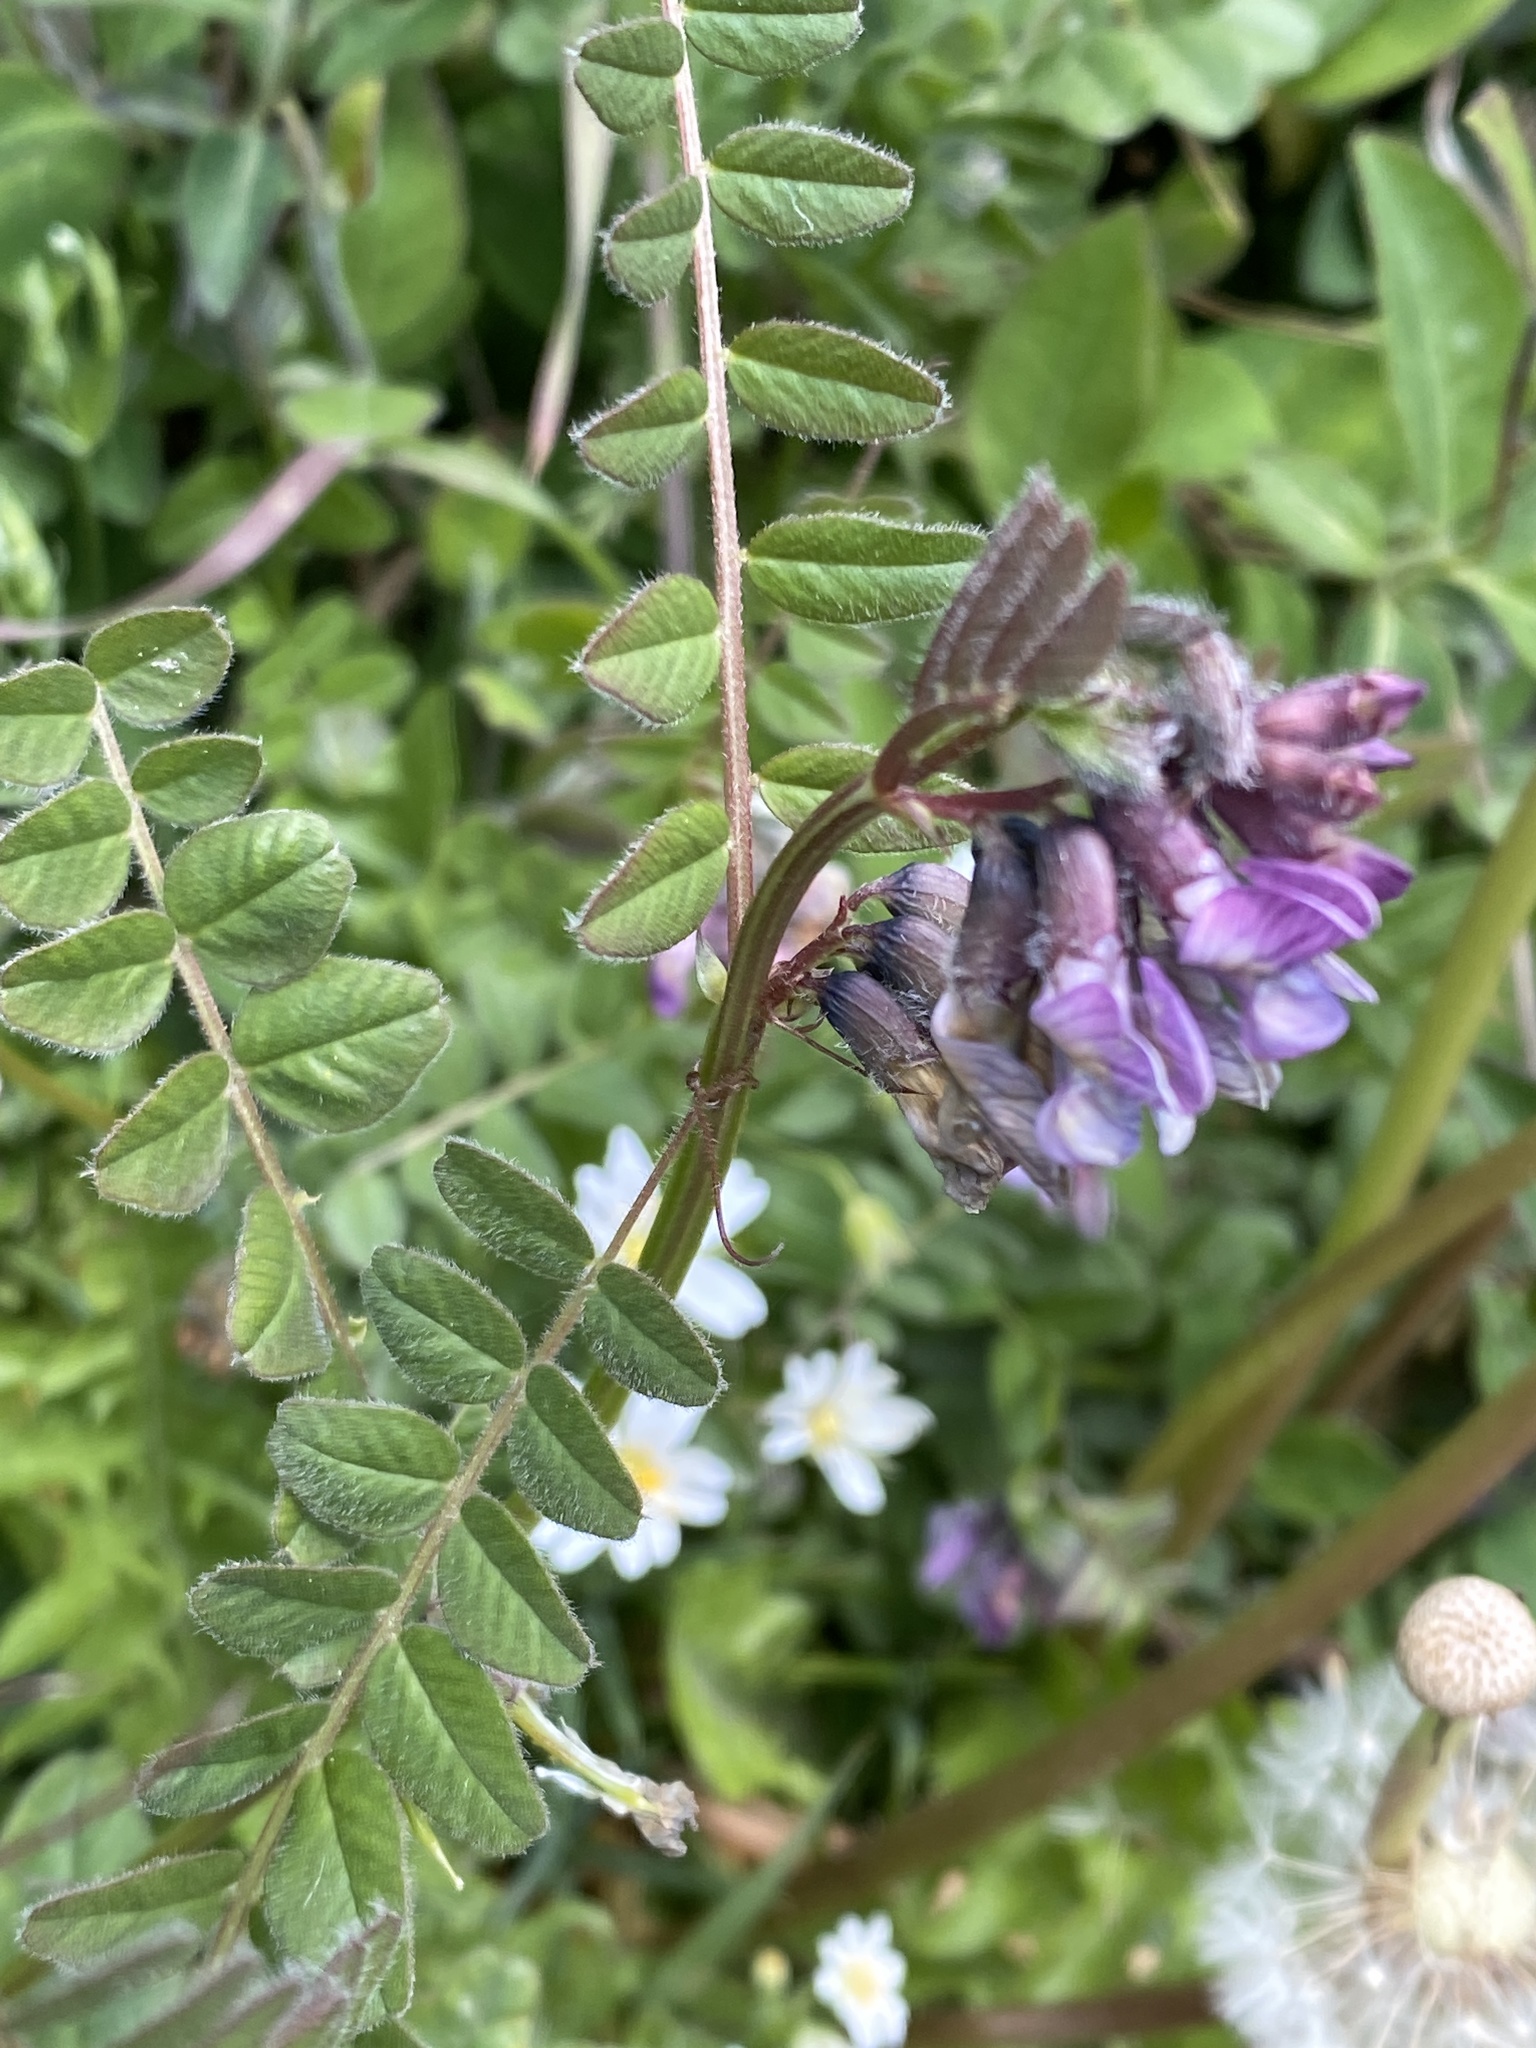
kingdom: Plantae
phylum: Tracheophyta
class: Magnoliopsida
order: Fabales
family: Fabaceae
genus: Vicia
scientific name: Vicia sepium
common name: Bush vetch
